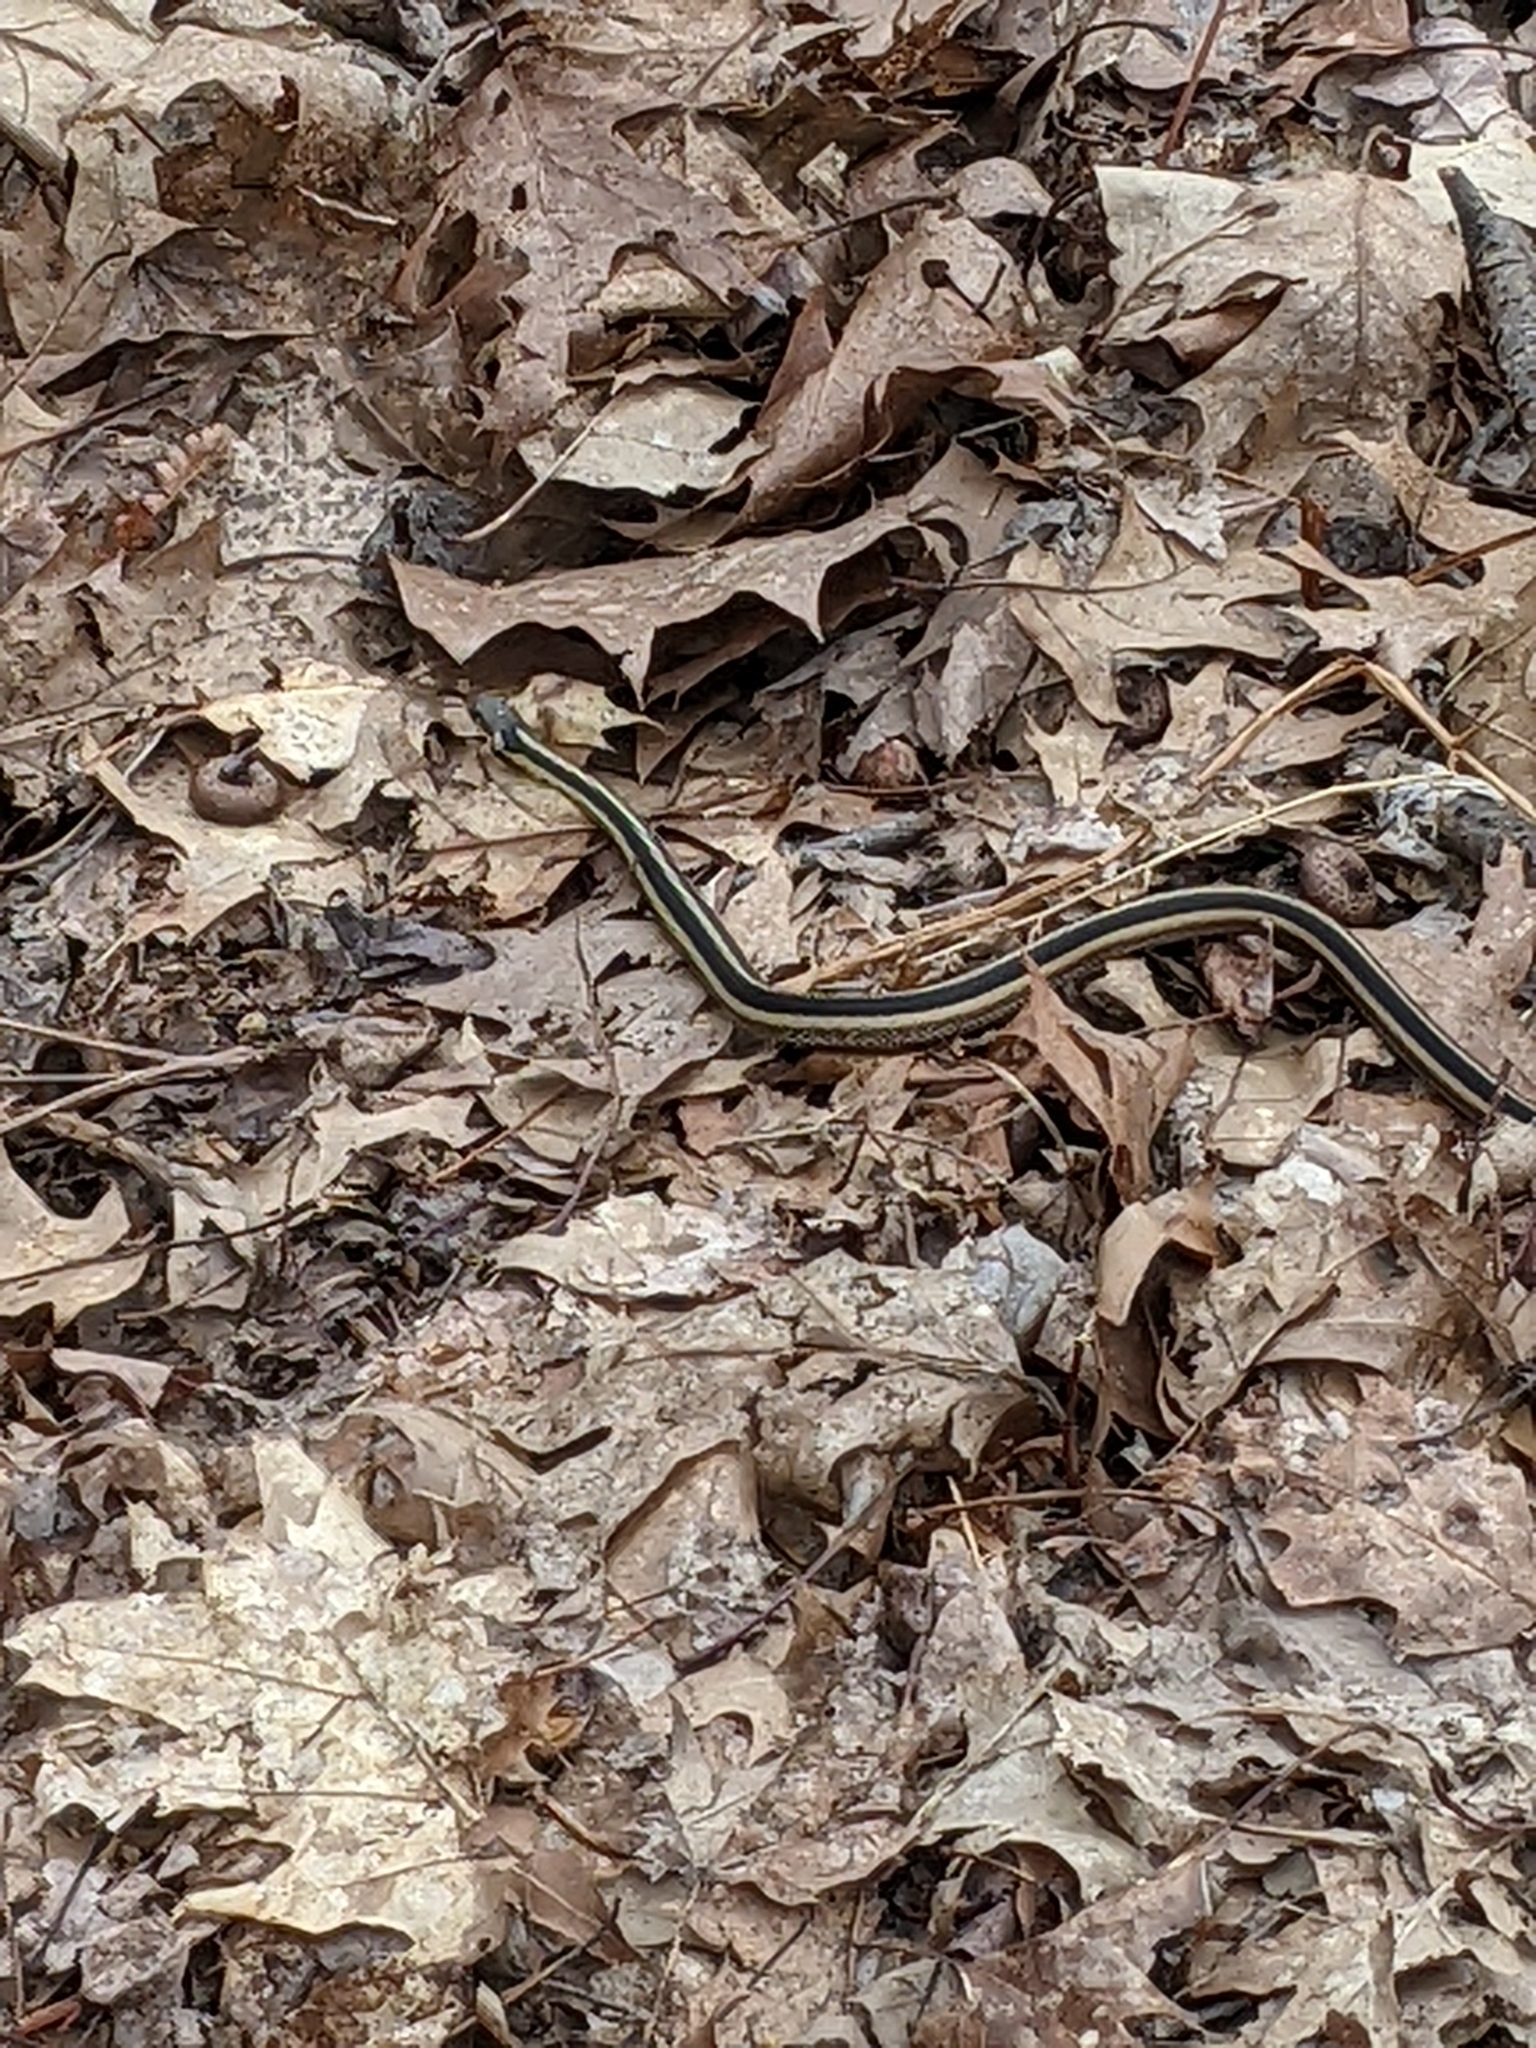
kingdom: Animalia
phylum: Chordata
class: Squamata
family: Colubridae
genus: Thamnophis
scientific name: Thamnophis sirtalis
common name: Common garter snake
